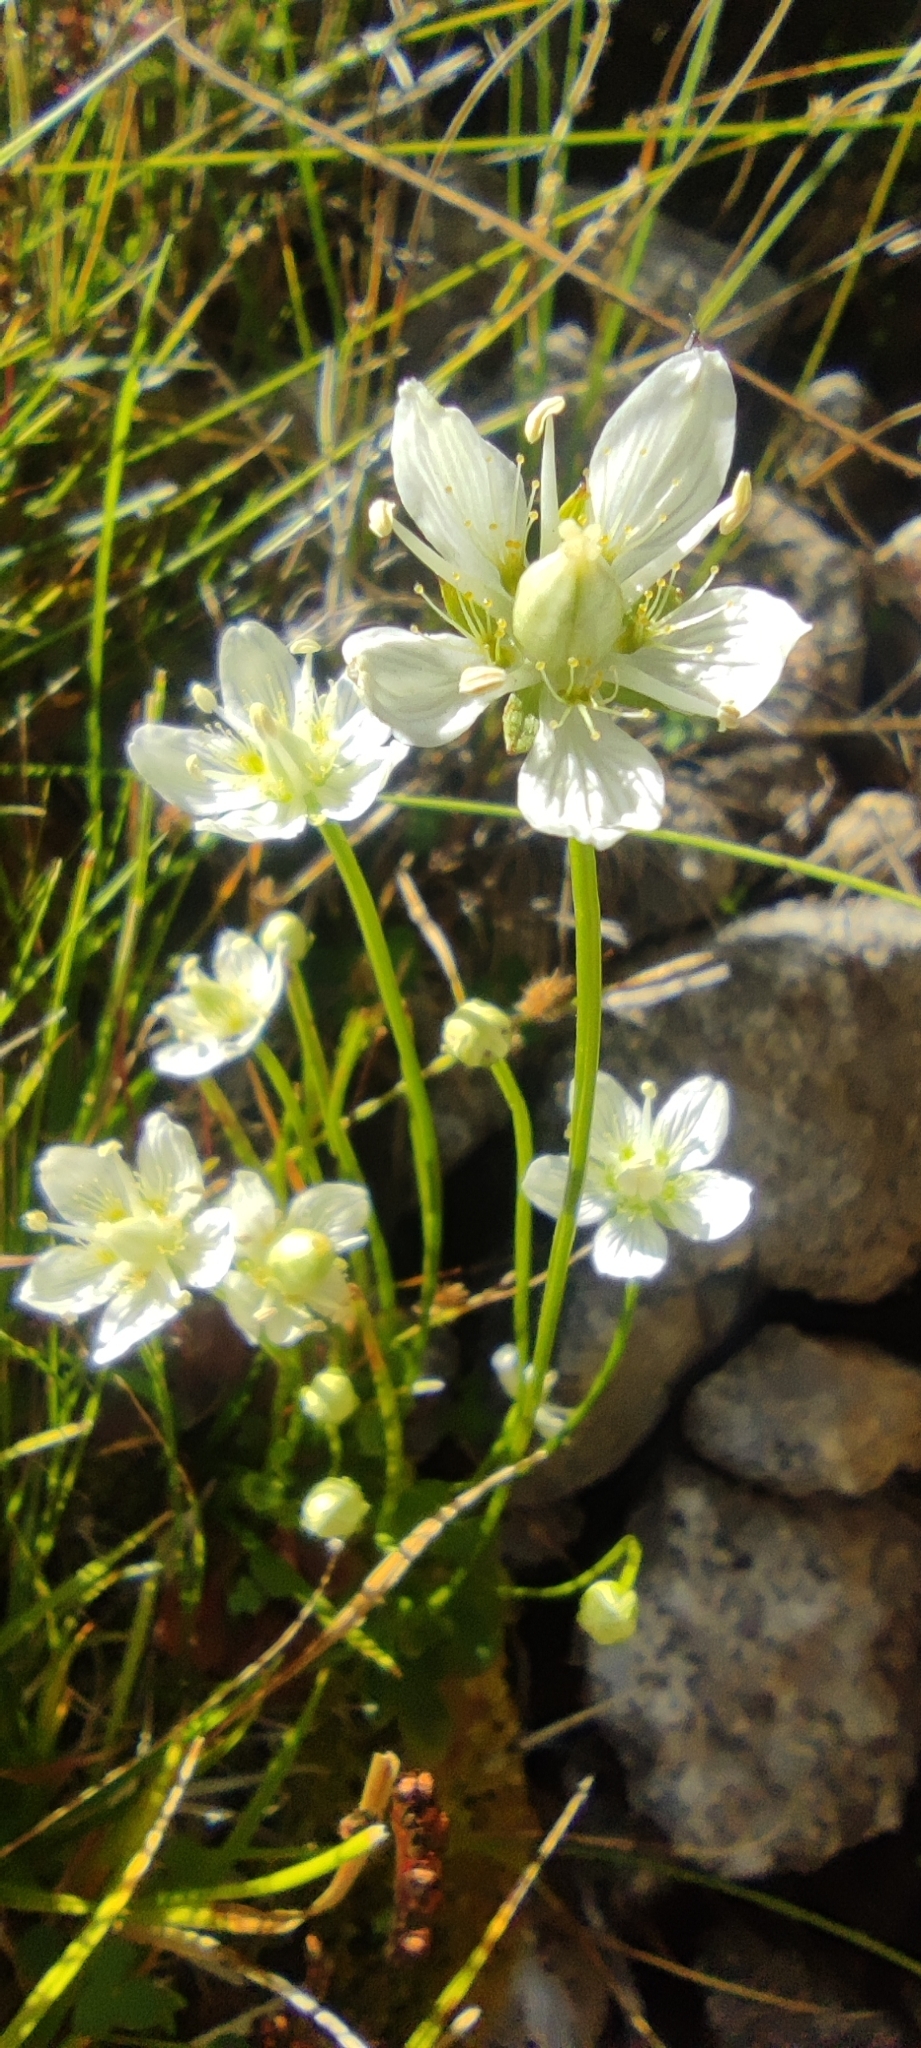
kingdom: Plantae
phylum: Tracheophyta
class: Magnoliopsida
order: Celastrales
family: Parnassiaceae
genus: Parnassia
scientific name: Parnassia palustris
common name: Grass-of-parnassus
